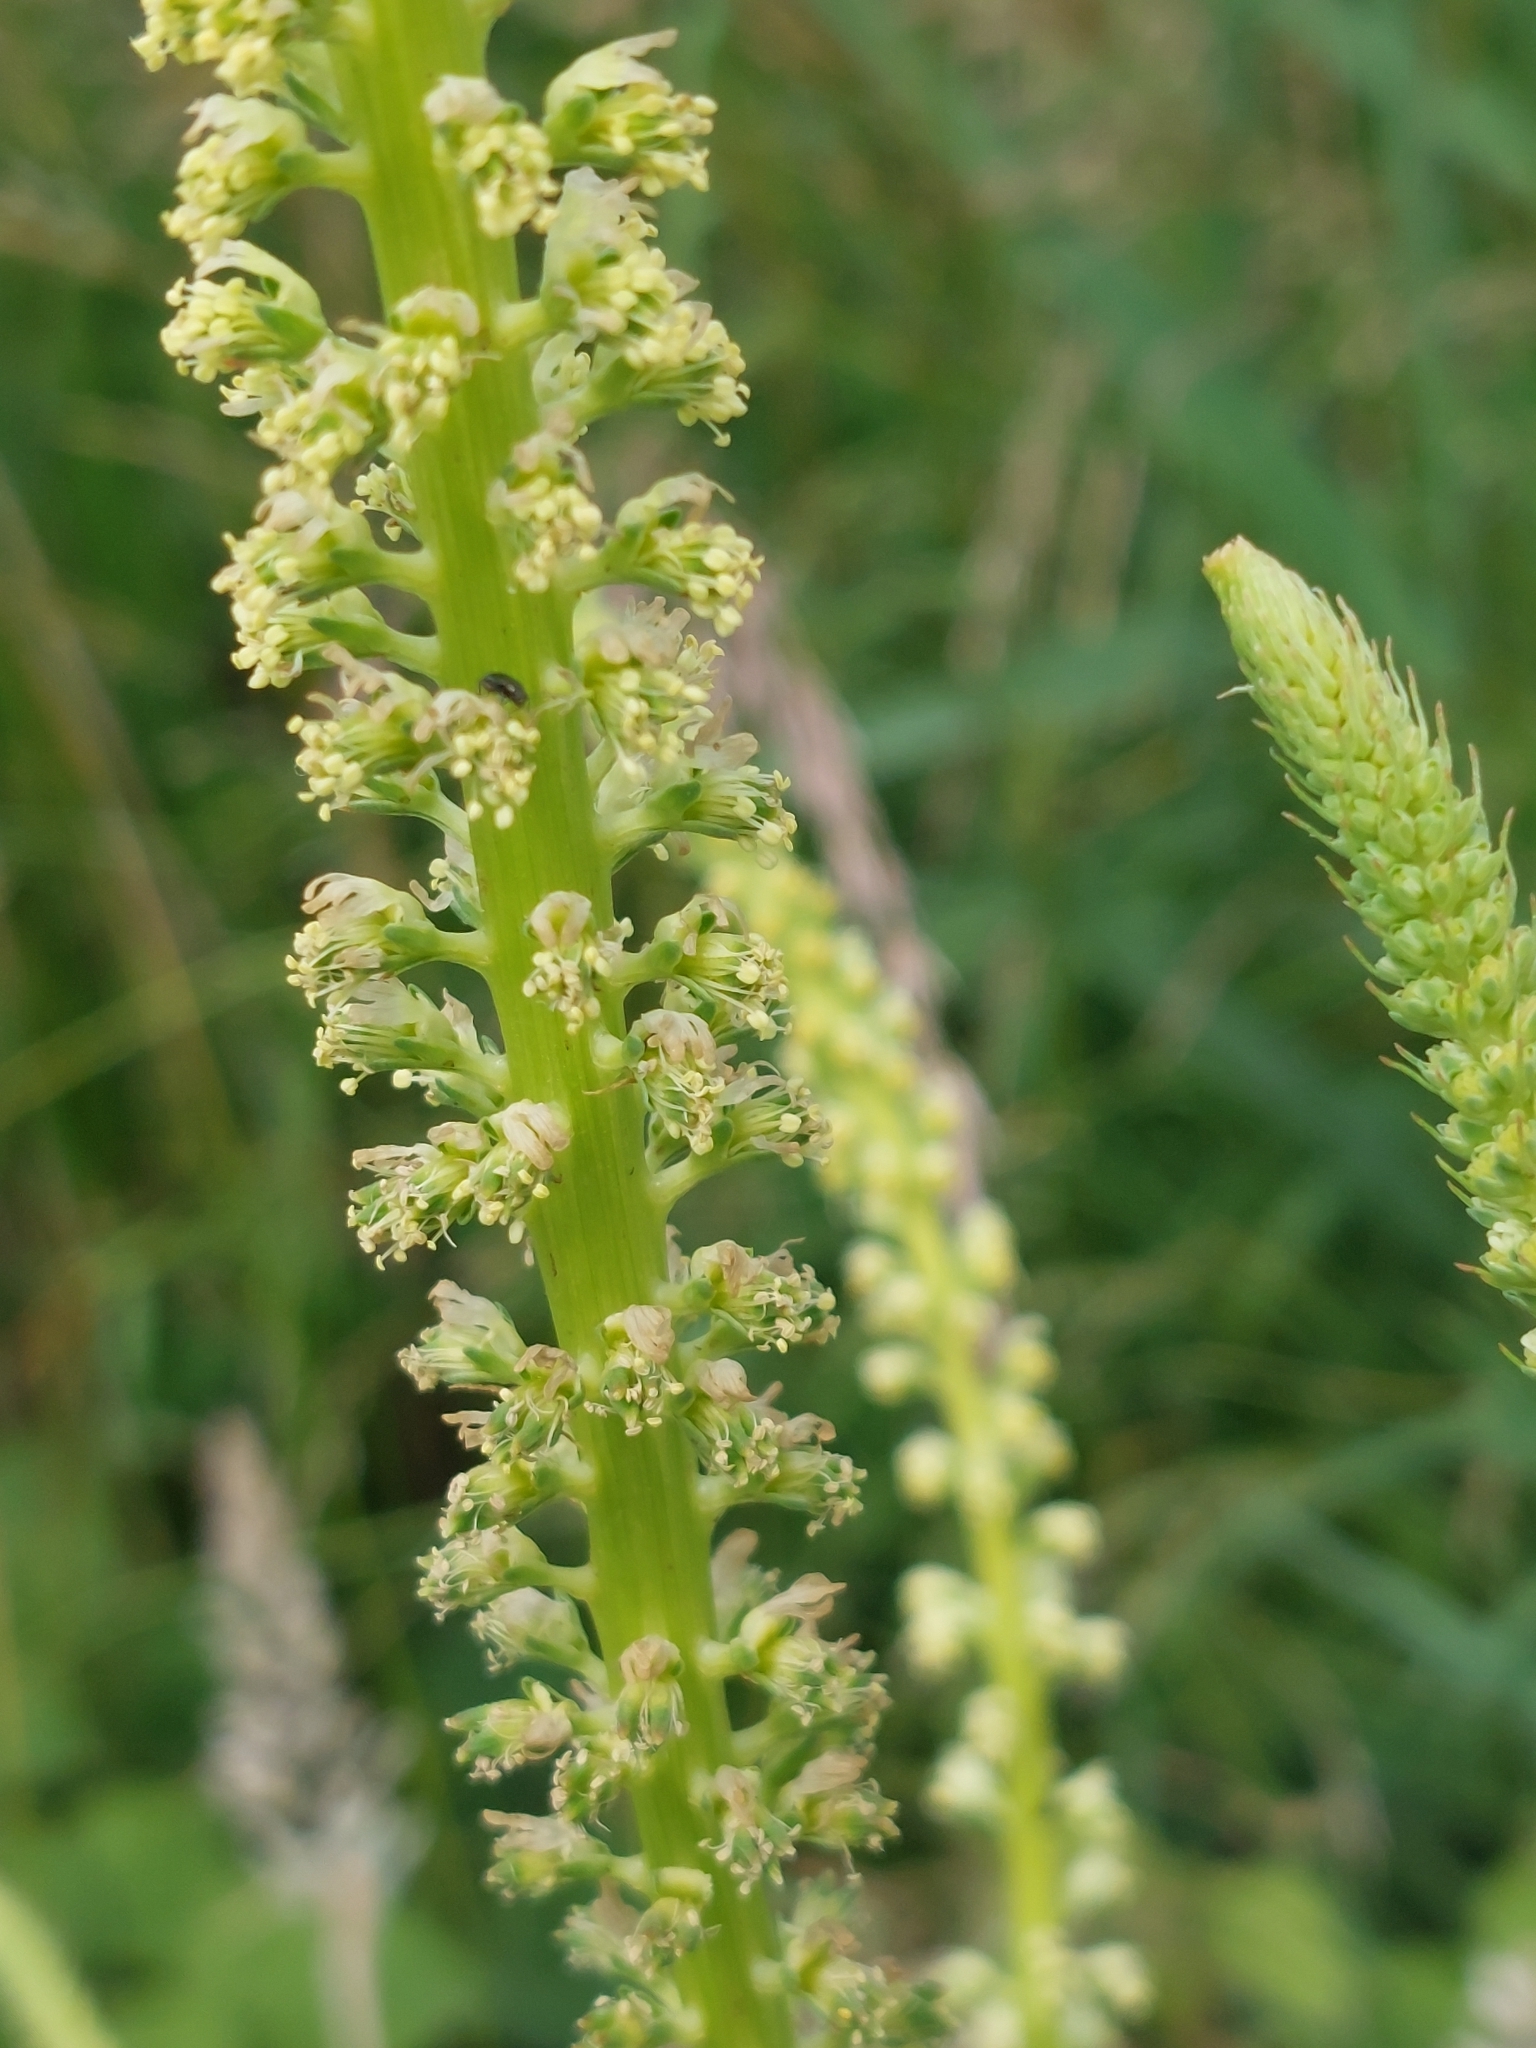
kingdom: Plantae
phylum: Tracheophyta
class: Magnoliopsida
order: Brassicales
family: Resedaceae
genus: Reseda
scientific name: Reseda luteola
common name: Weld
